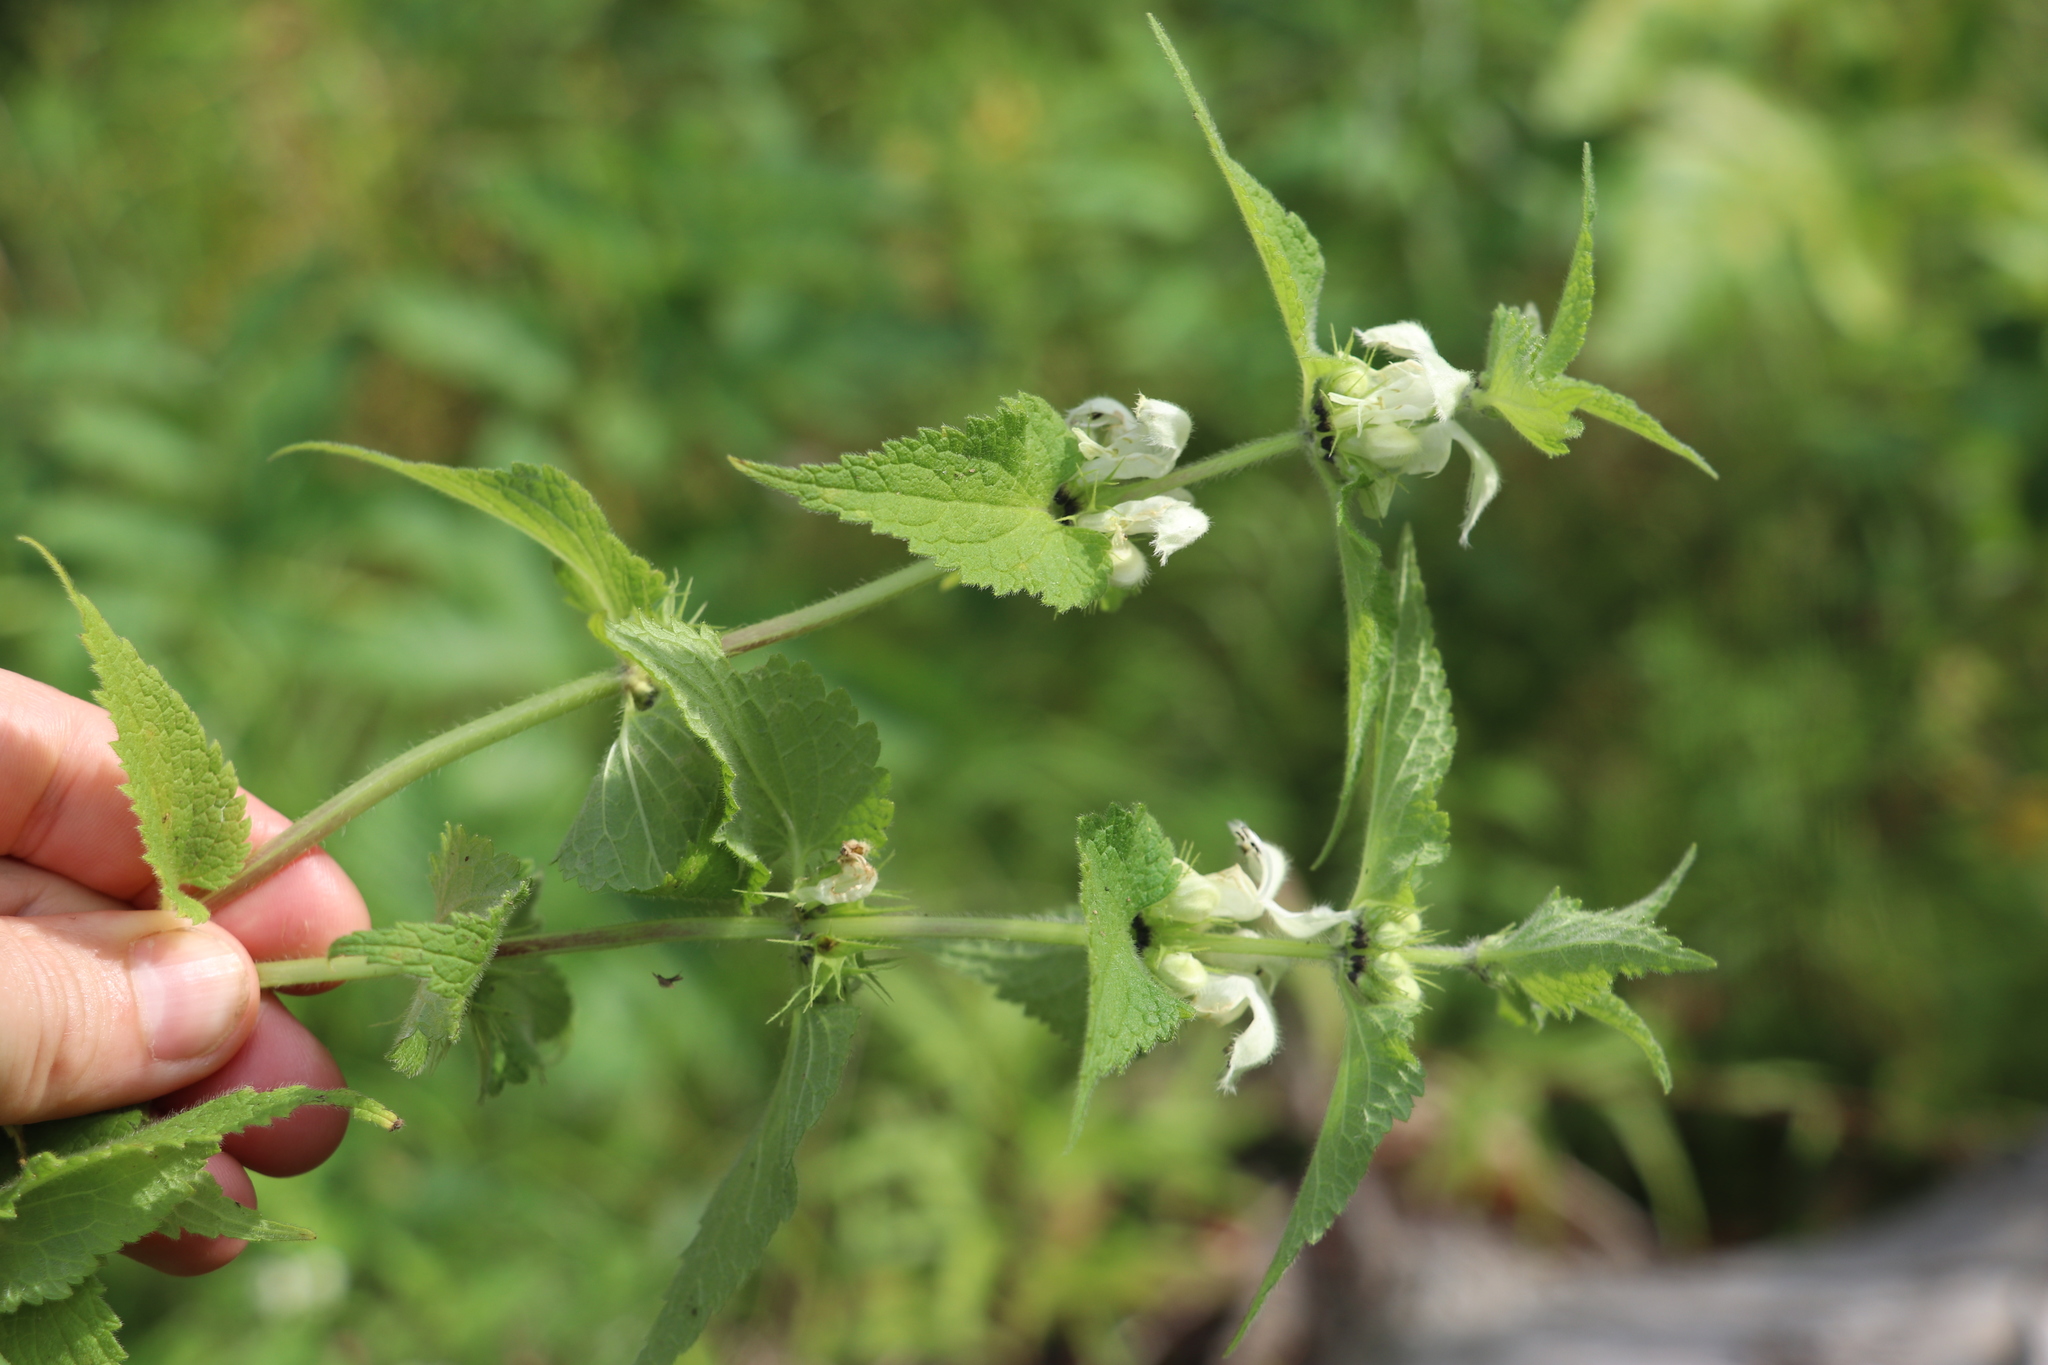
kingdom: Plantae
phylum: Tracheophyta
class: Magnoliopsida
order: Lamiales
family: Lamiaceae
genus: Lamium
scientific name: Lamium album
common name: White dead-nettle
